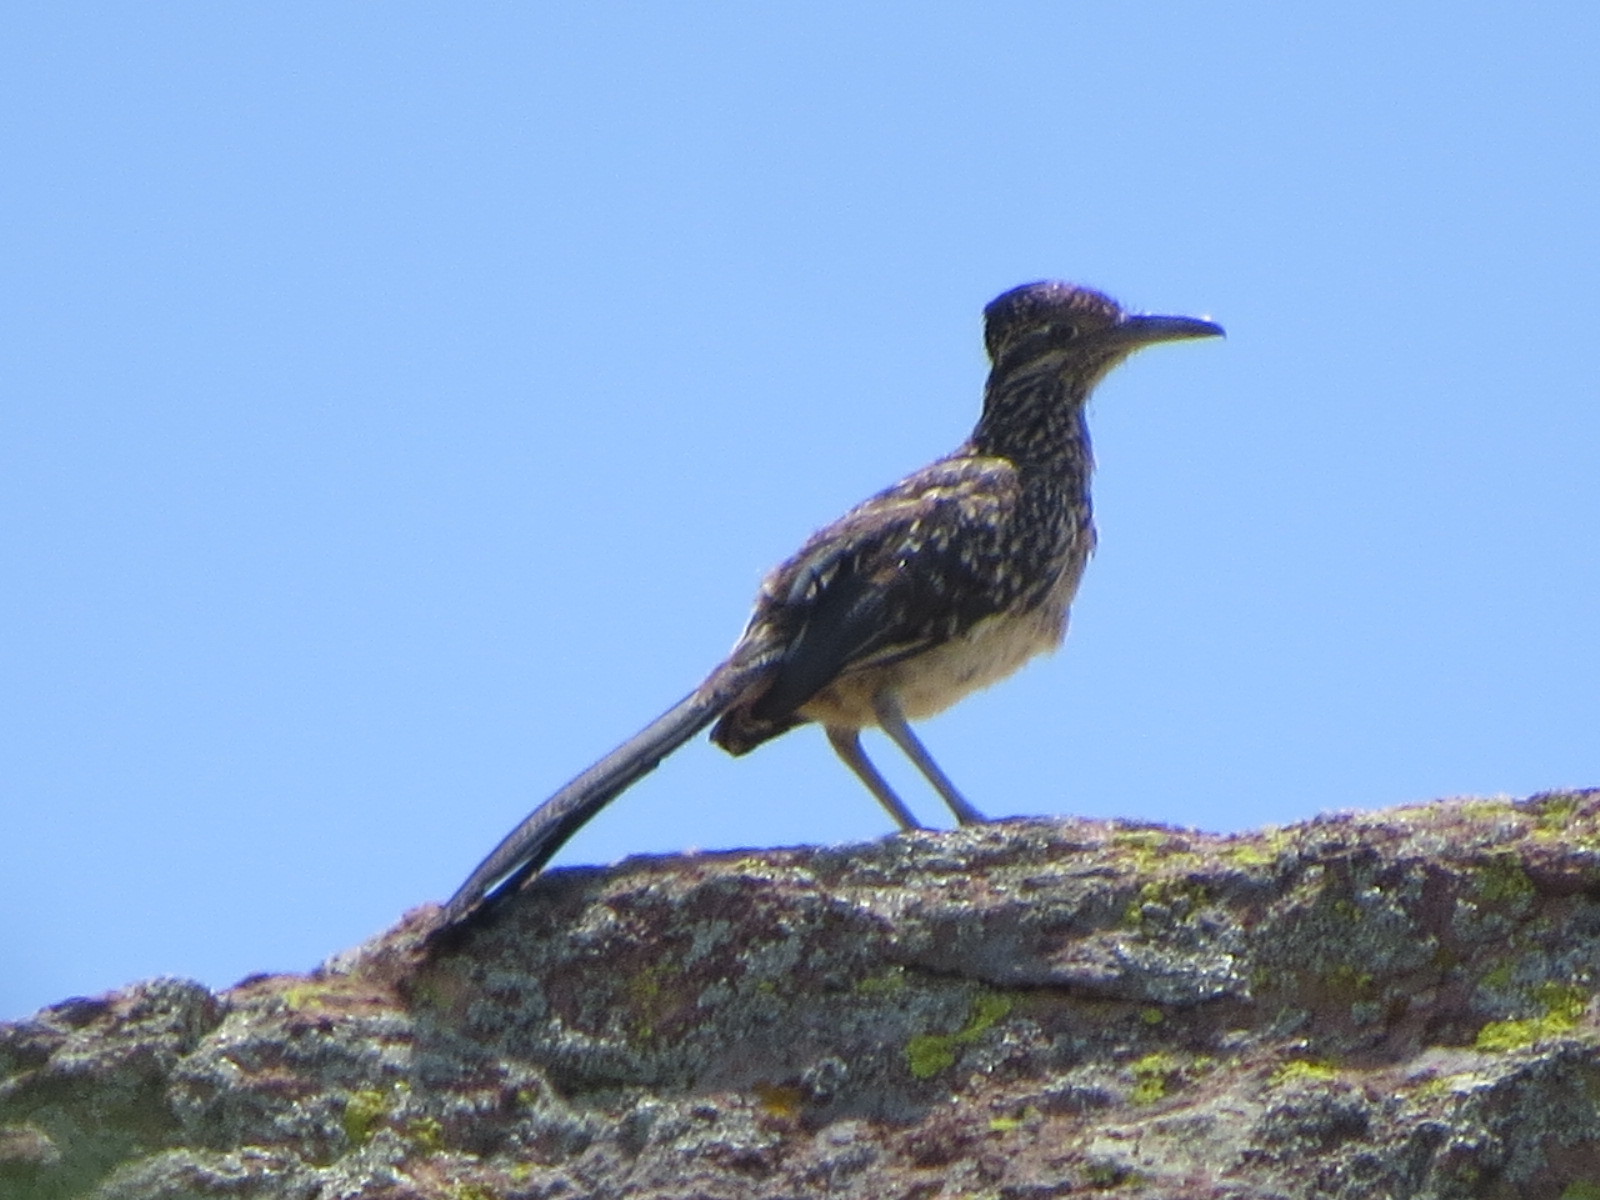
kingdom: Animalia
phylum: Chordata
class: Aves
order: Cuculiformes
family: Cuculidae
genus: Geococcyx
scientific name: Geococcyx californianus
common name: Greater roadrunner
